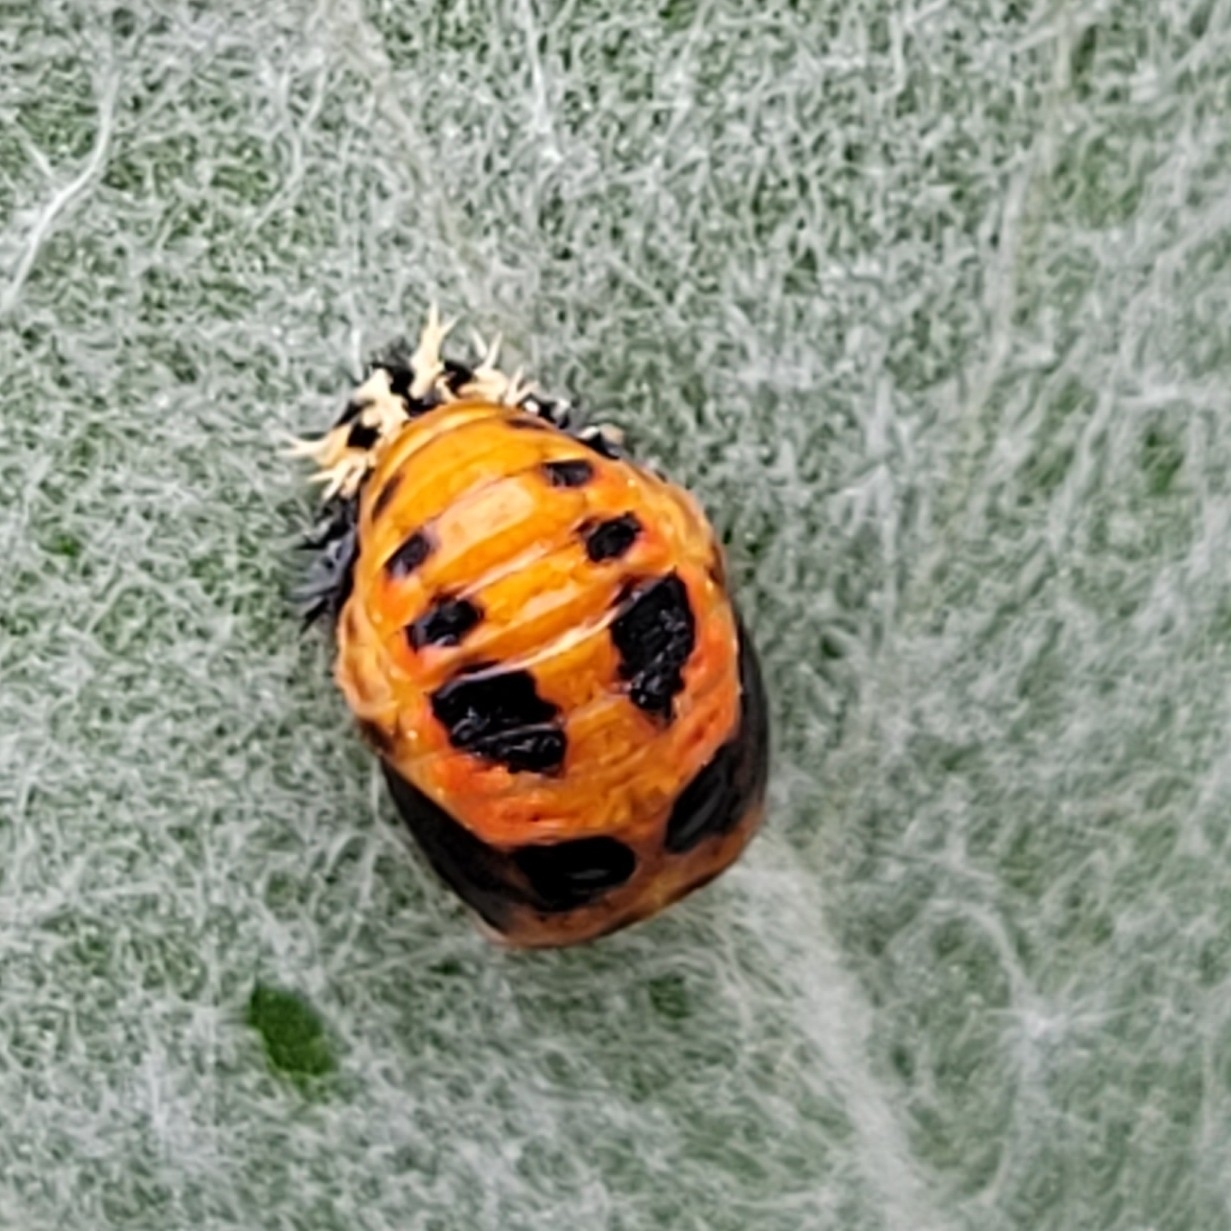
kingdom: Animalia
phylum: Arthropoda
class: Insecta
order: Coleoptera
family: Coccinellidae
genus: Harmonia
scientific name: Harmonia axyridis
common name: Harlequin ladybird
